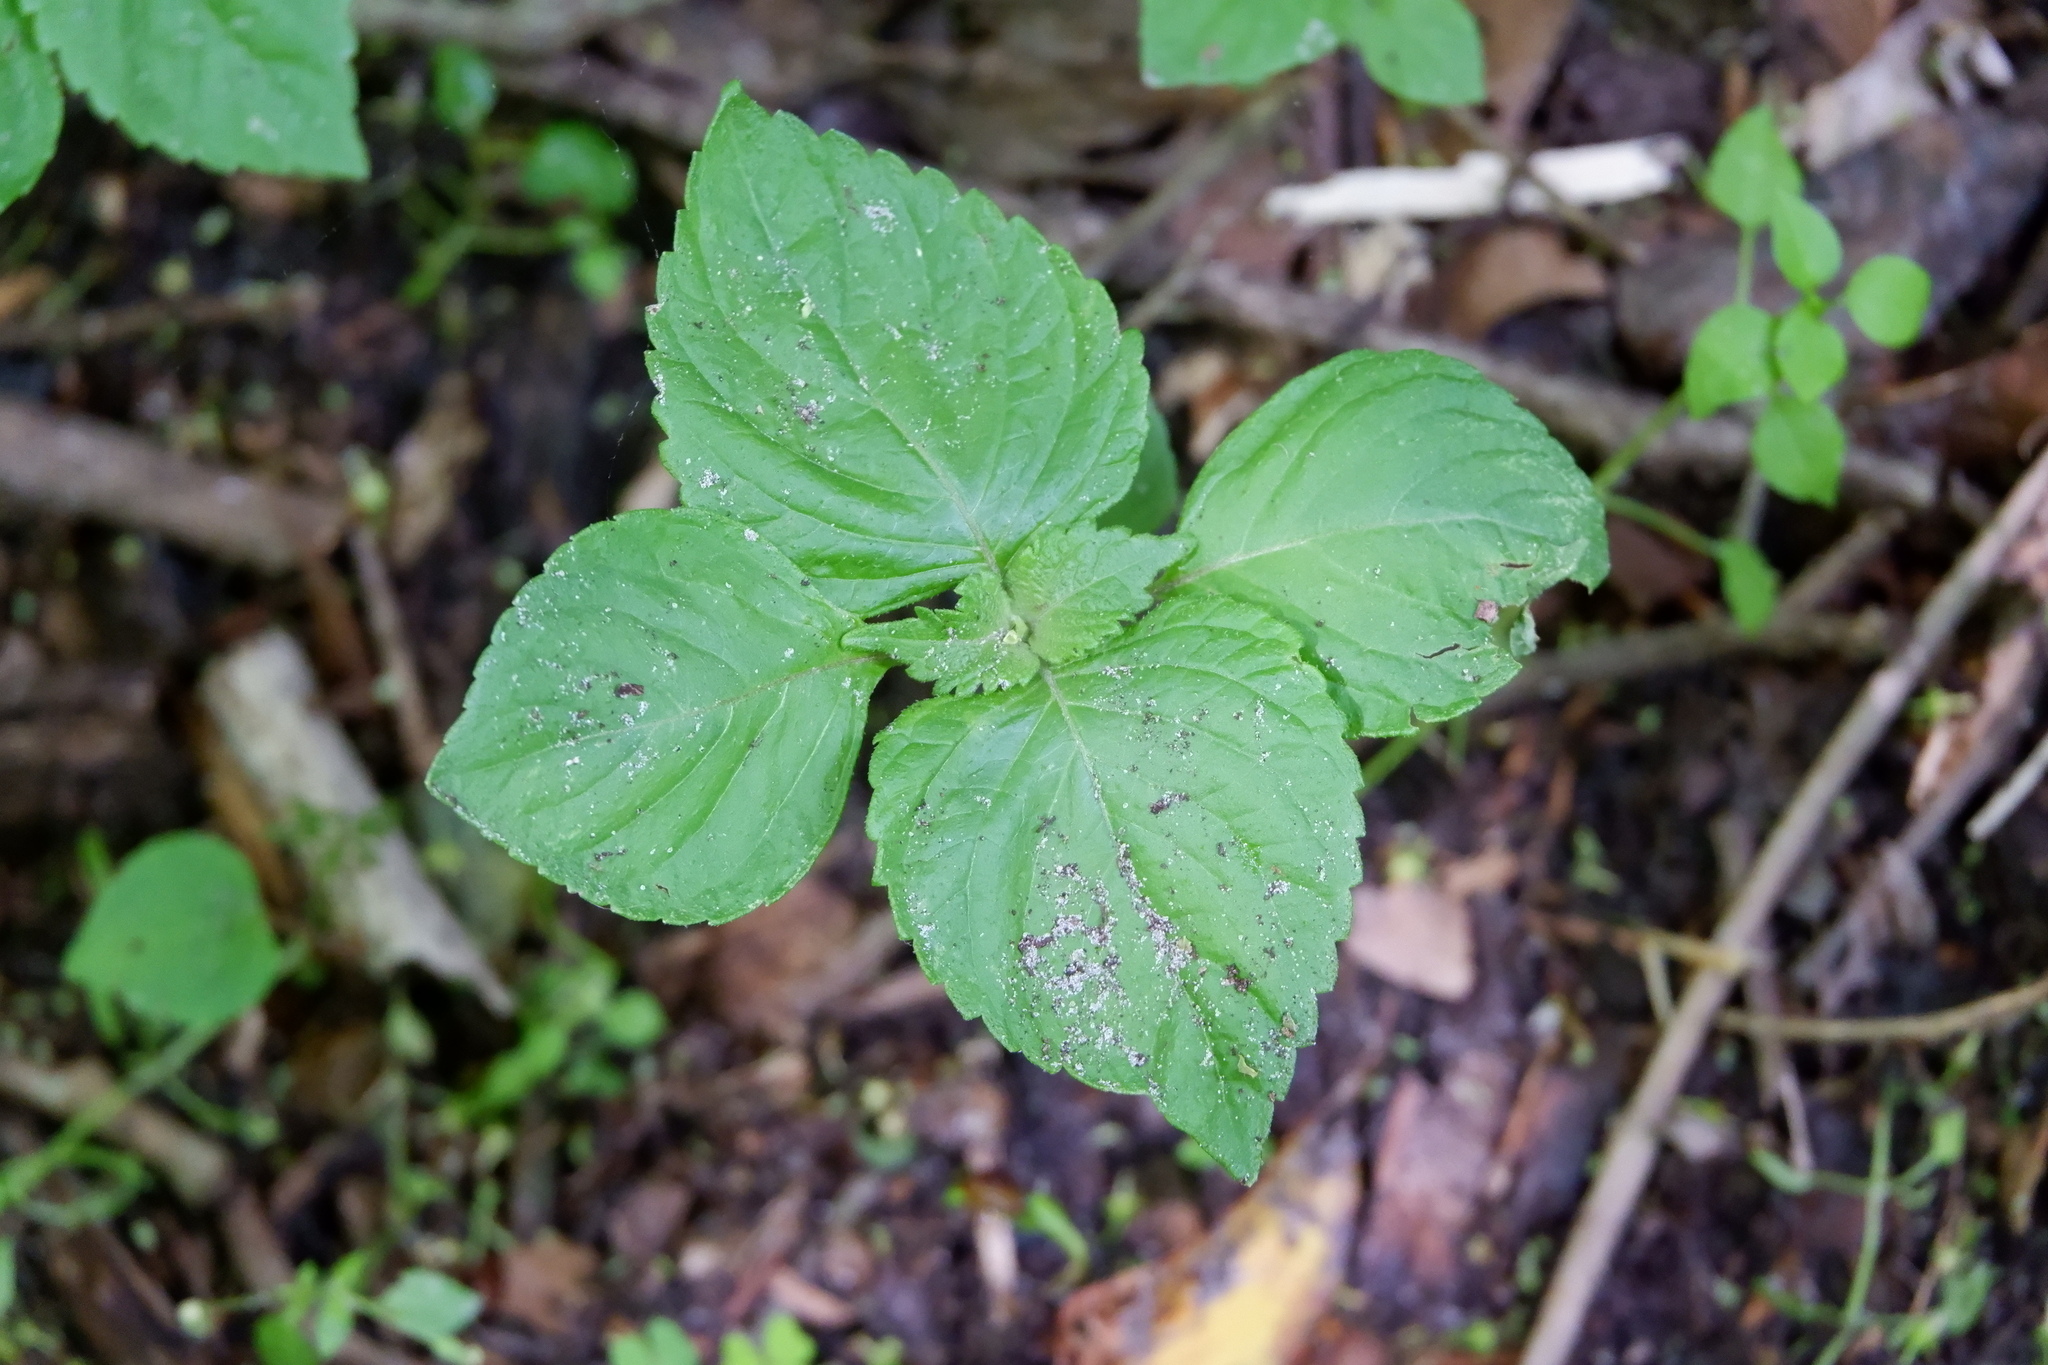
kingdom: Plantae
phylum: Tracheophyta
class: Magnoliopsida
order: Lamiales
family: Lamiaceae
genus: Perilla
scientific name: Perilla frutescens
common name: Perilla
